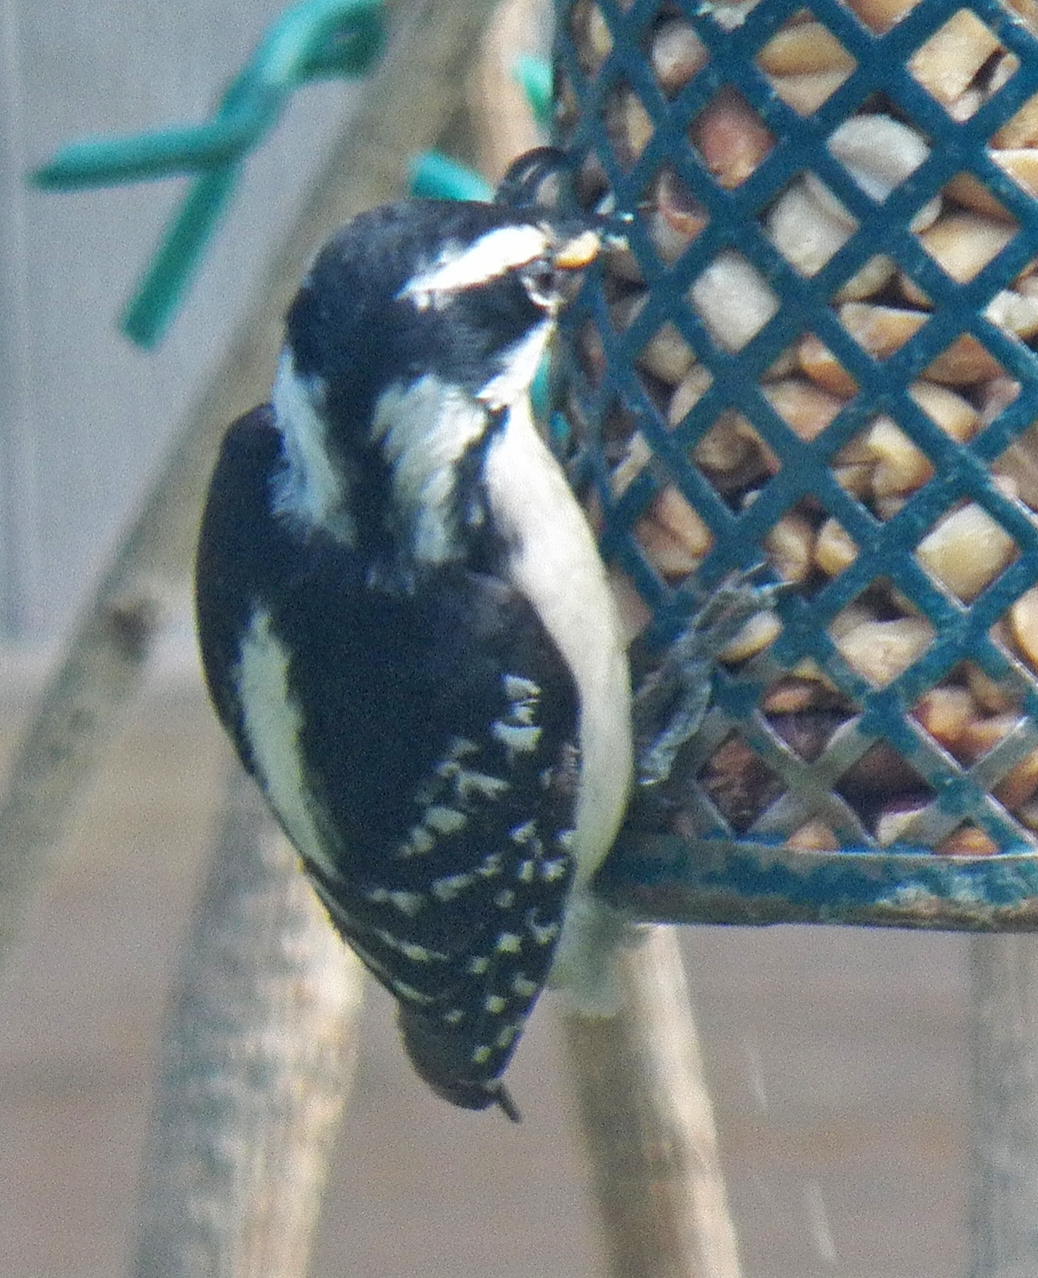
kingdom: Animalia
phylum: Chordata
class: Aves
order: Piciformes
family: Picidae
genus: Dryobates
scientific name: Dryobates pubescens
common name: Downy woodpecker
